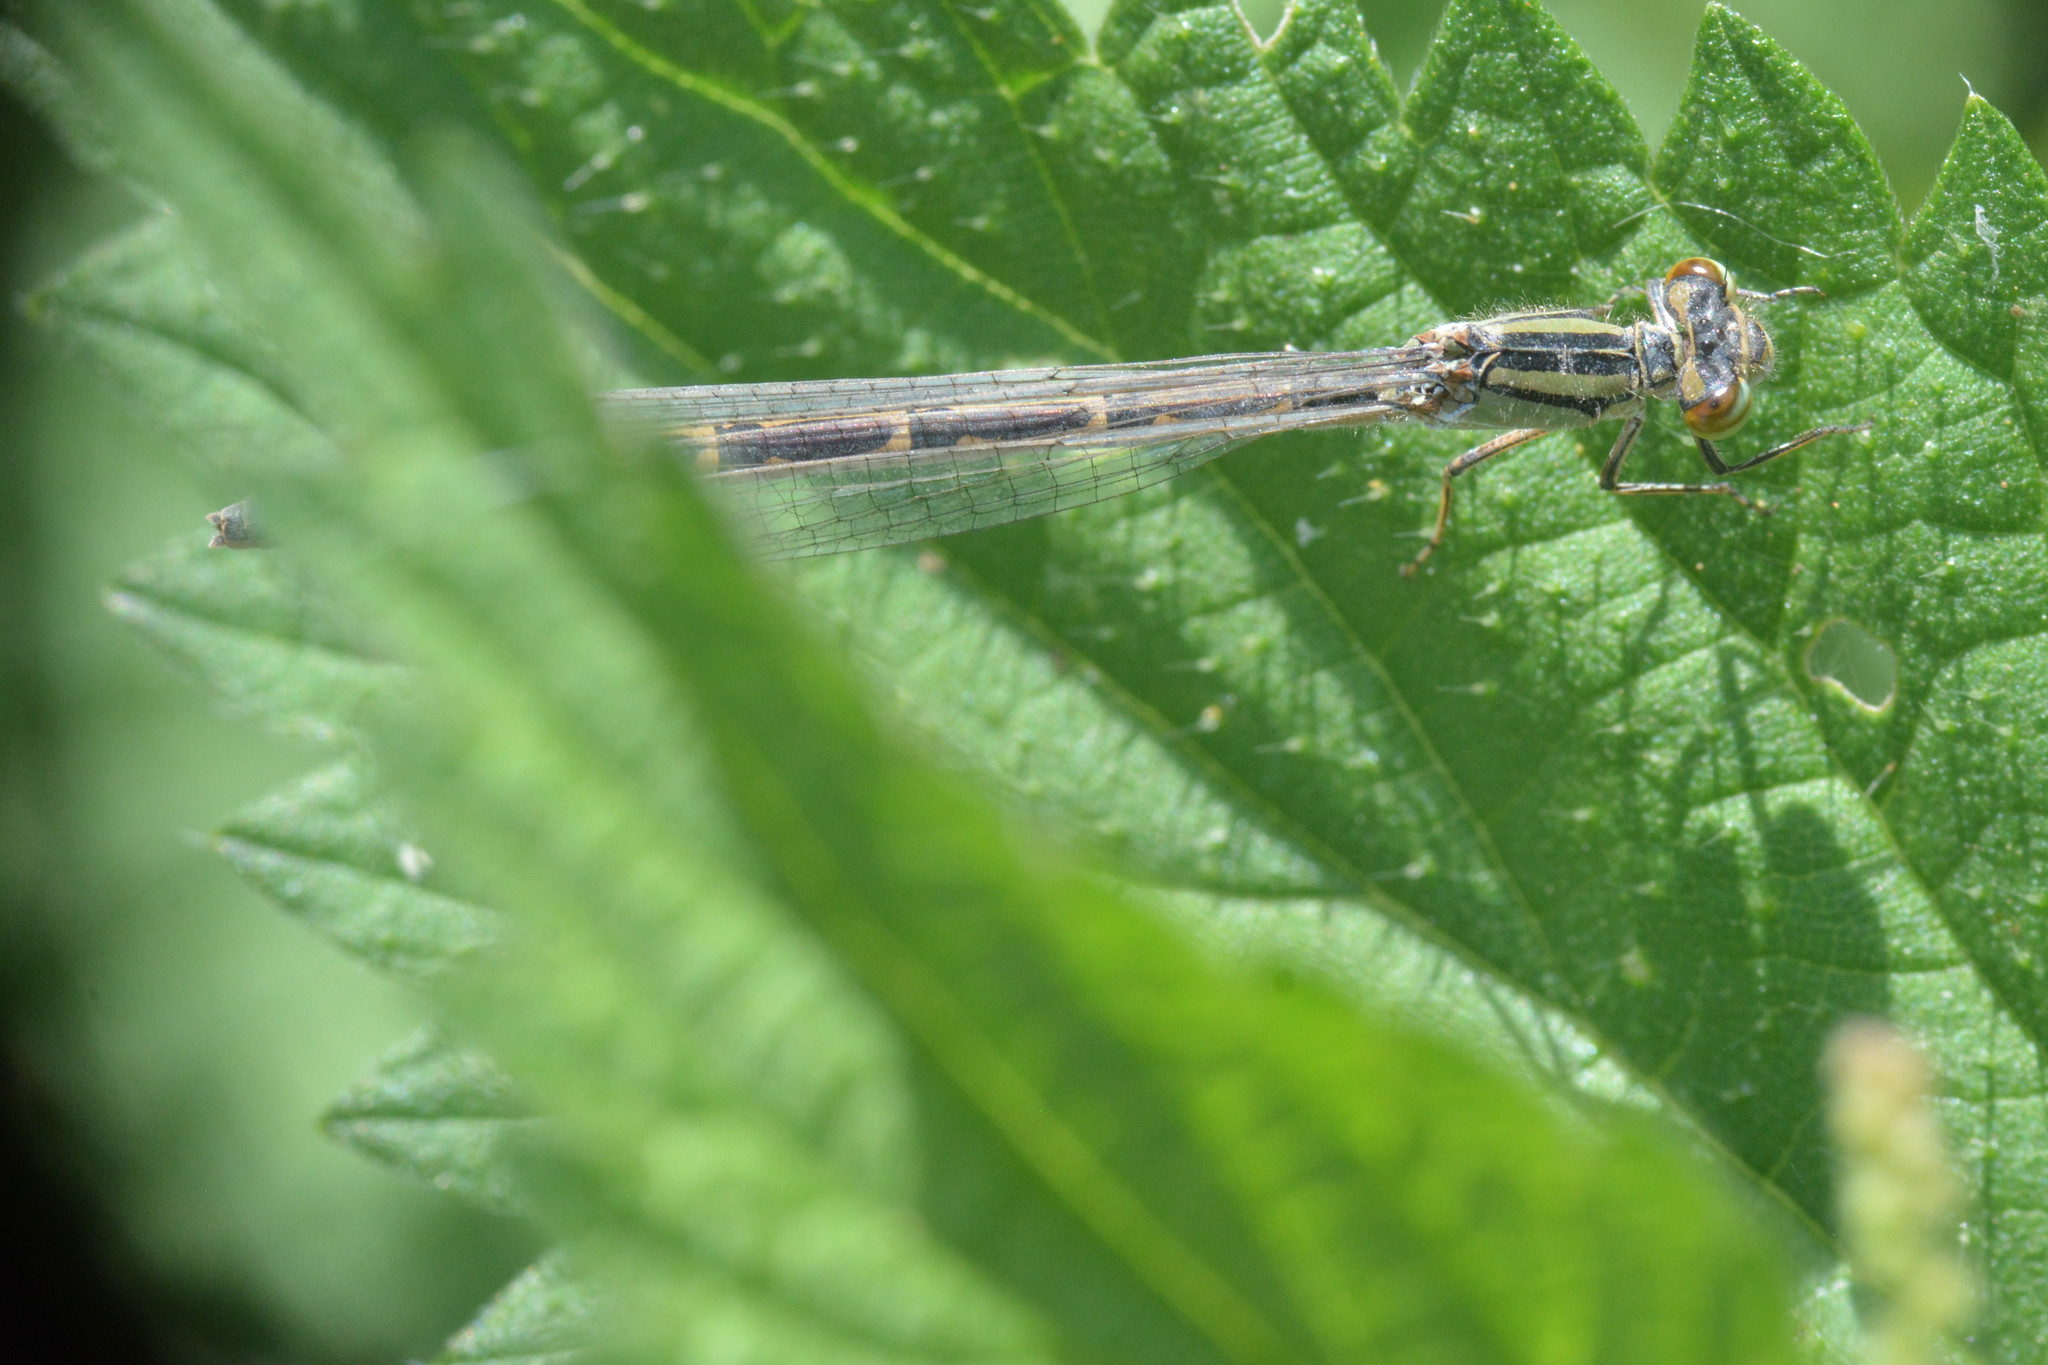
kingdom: Animalia
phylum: Arthropoda
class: Insecta
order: Odonata
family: Coenagrionidae
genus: Enallagma
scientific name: Enallagma cyathigerum
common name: Common blue damselfly
